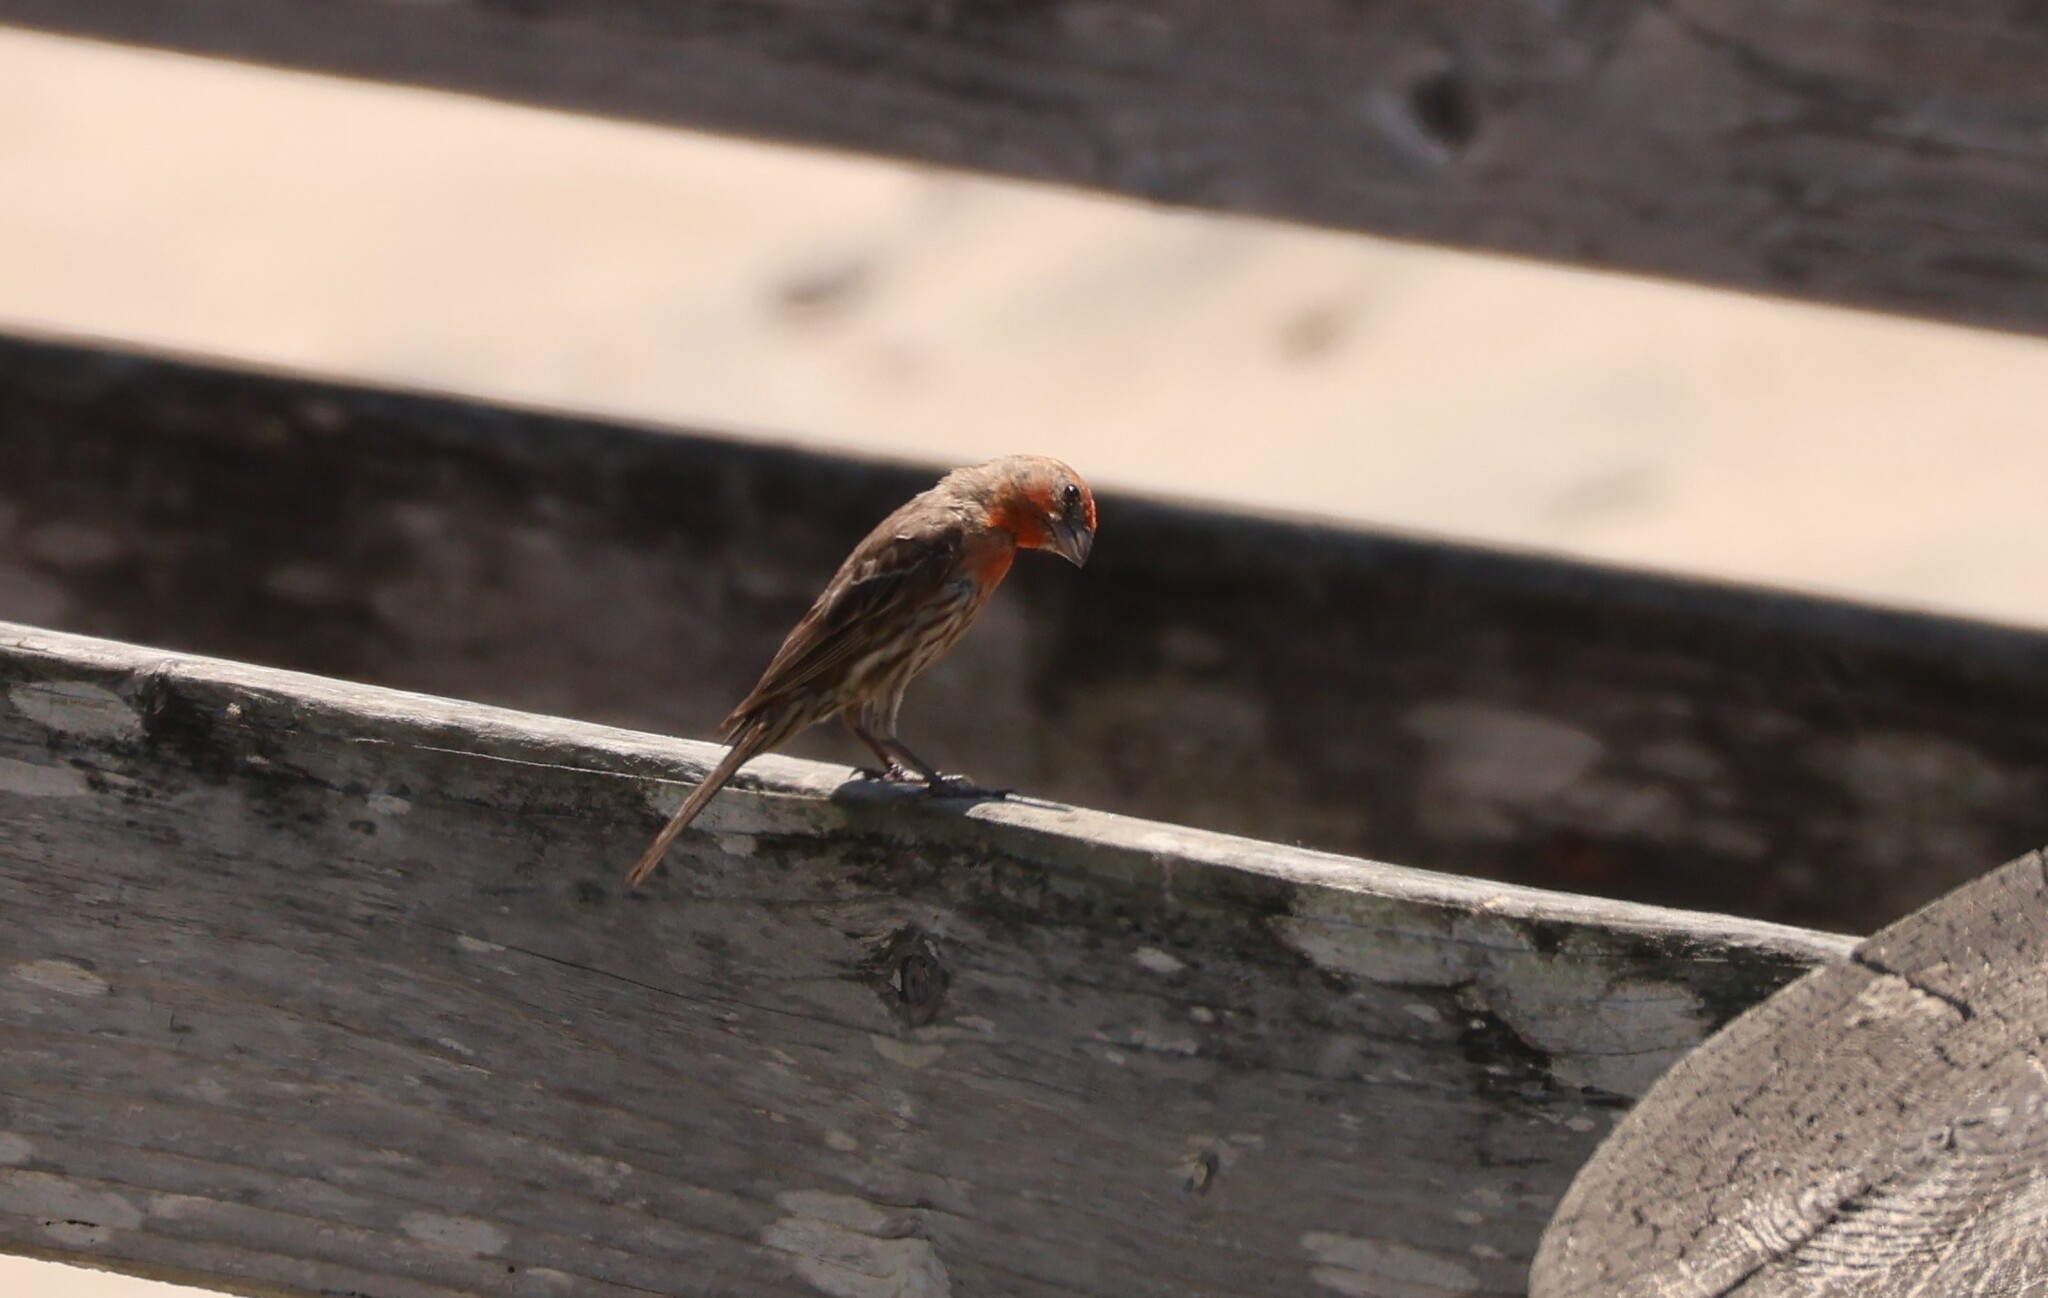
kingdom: Animalia
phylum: Chordata
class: Aves
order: Passeriformes
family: Fringillidae
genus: Haemorhous
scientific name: Haemorhous mexicanus
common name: House finch
